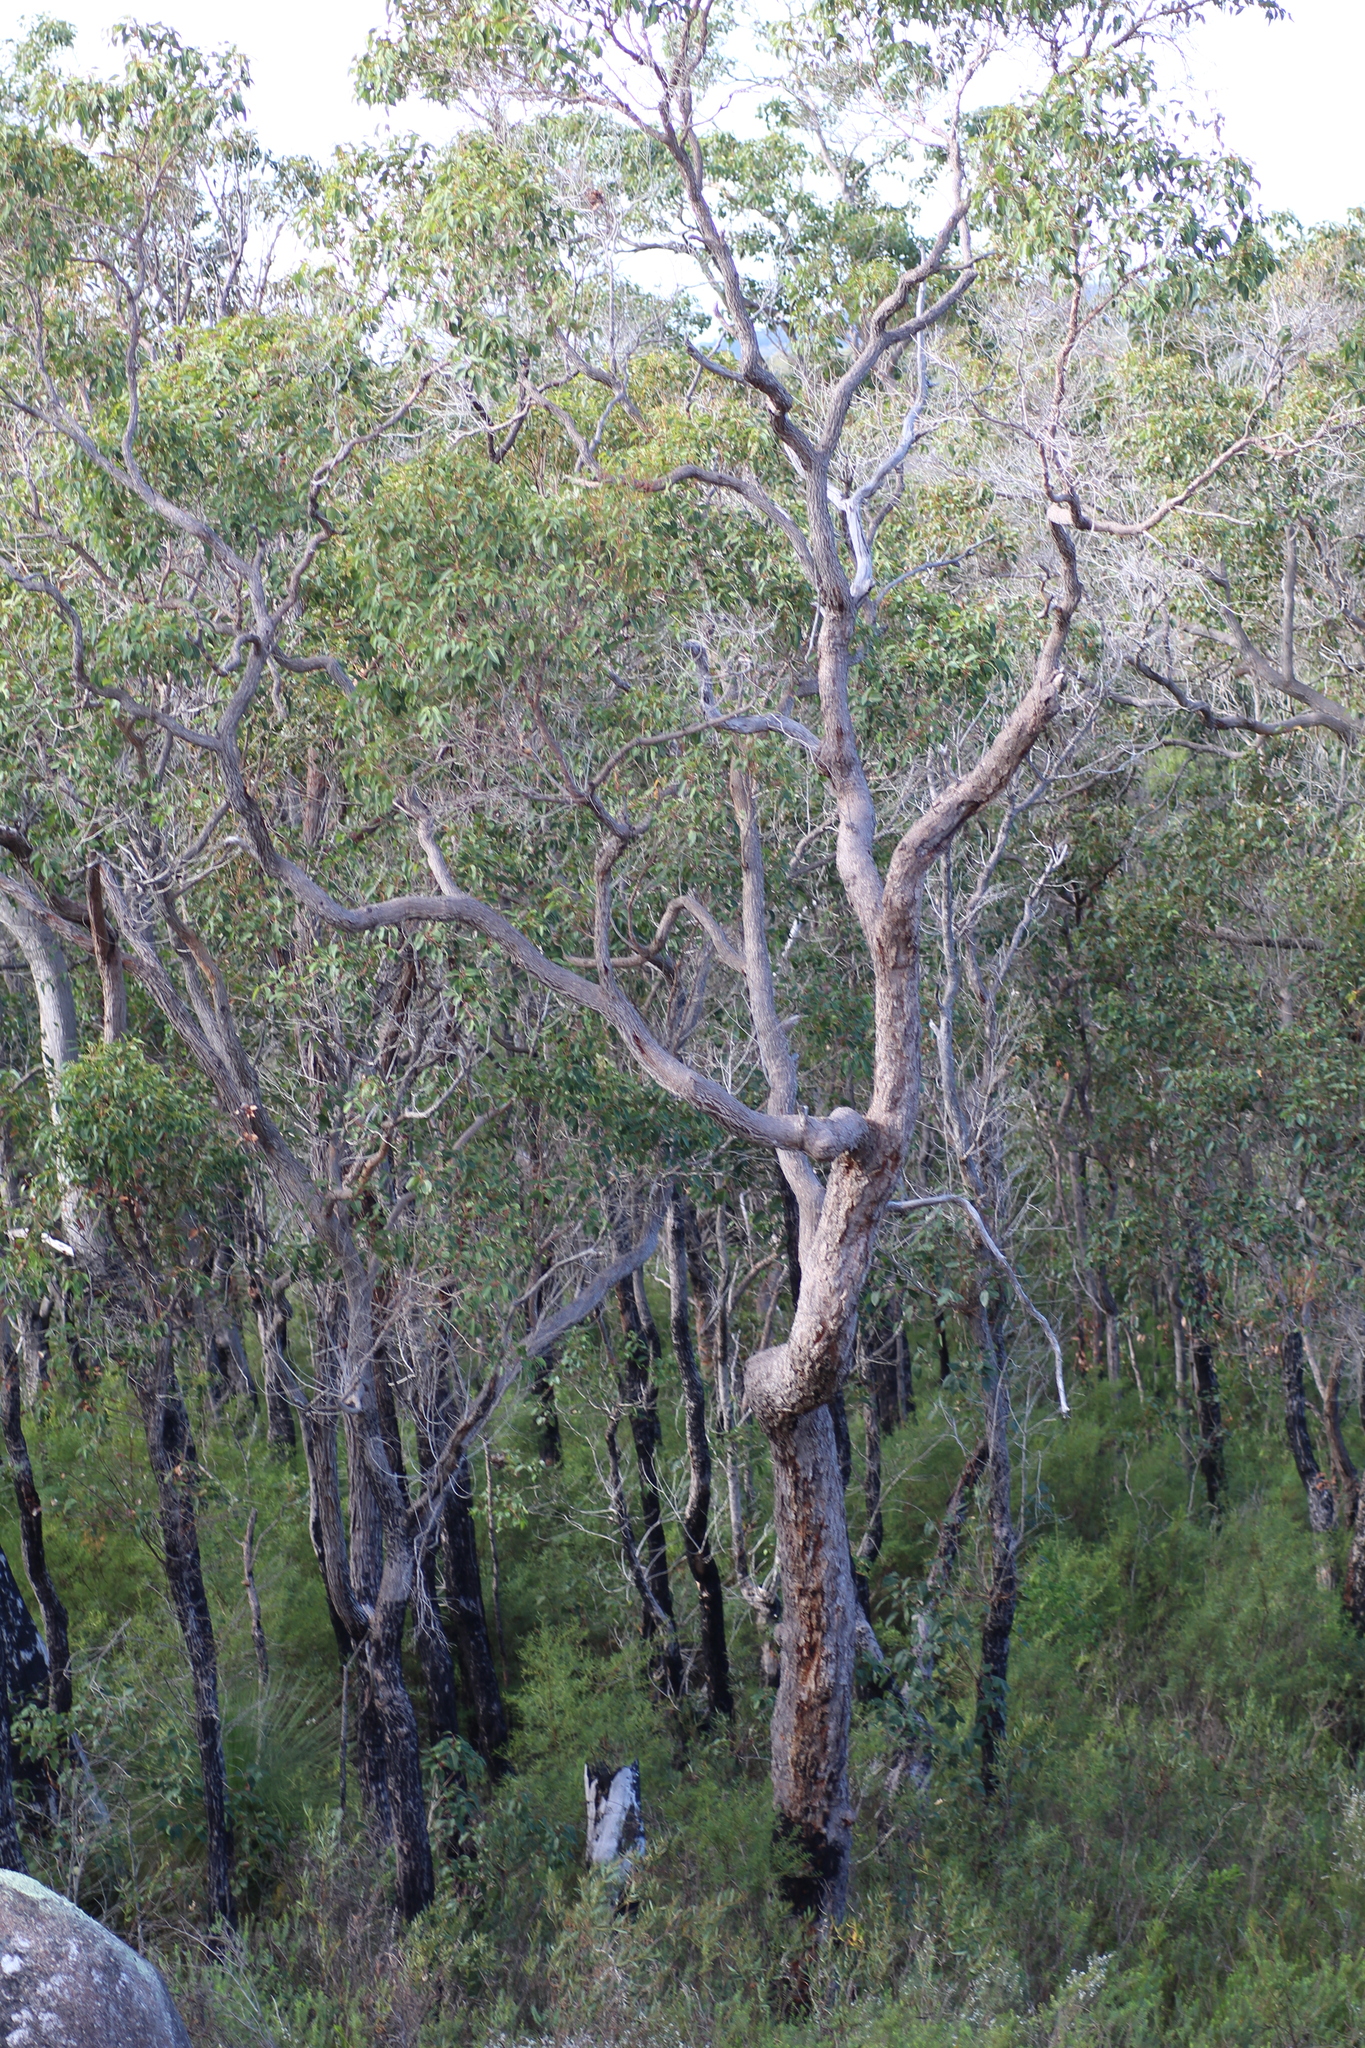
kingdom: Plantae
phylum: Tracheophyta
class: Magnoliopsida
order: Myrtales
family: Myrtaceae
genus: Corymbia
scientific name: Corymbia calophylla
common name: Marri
